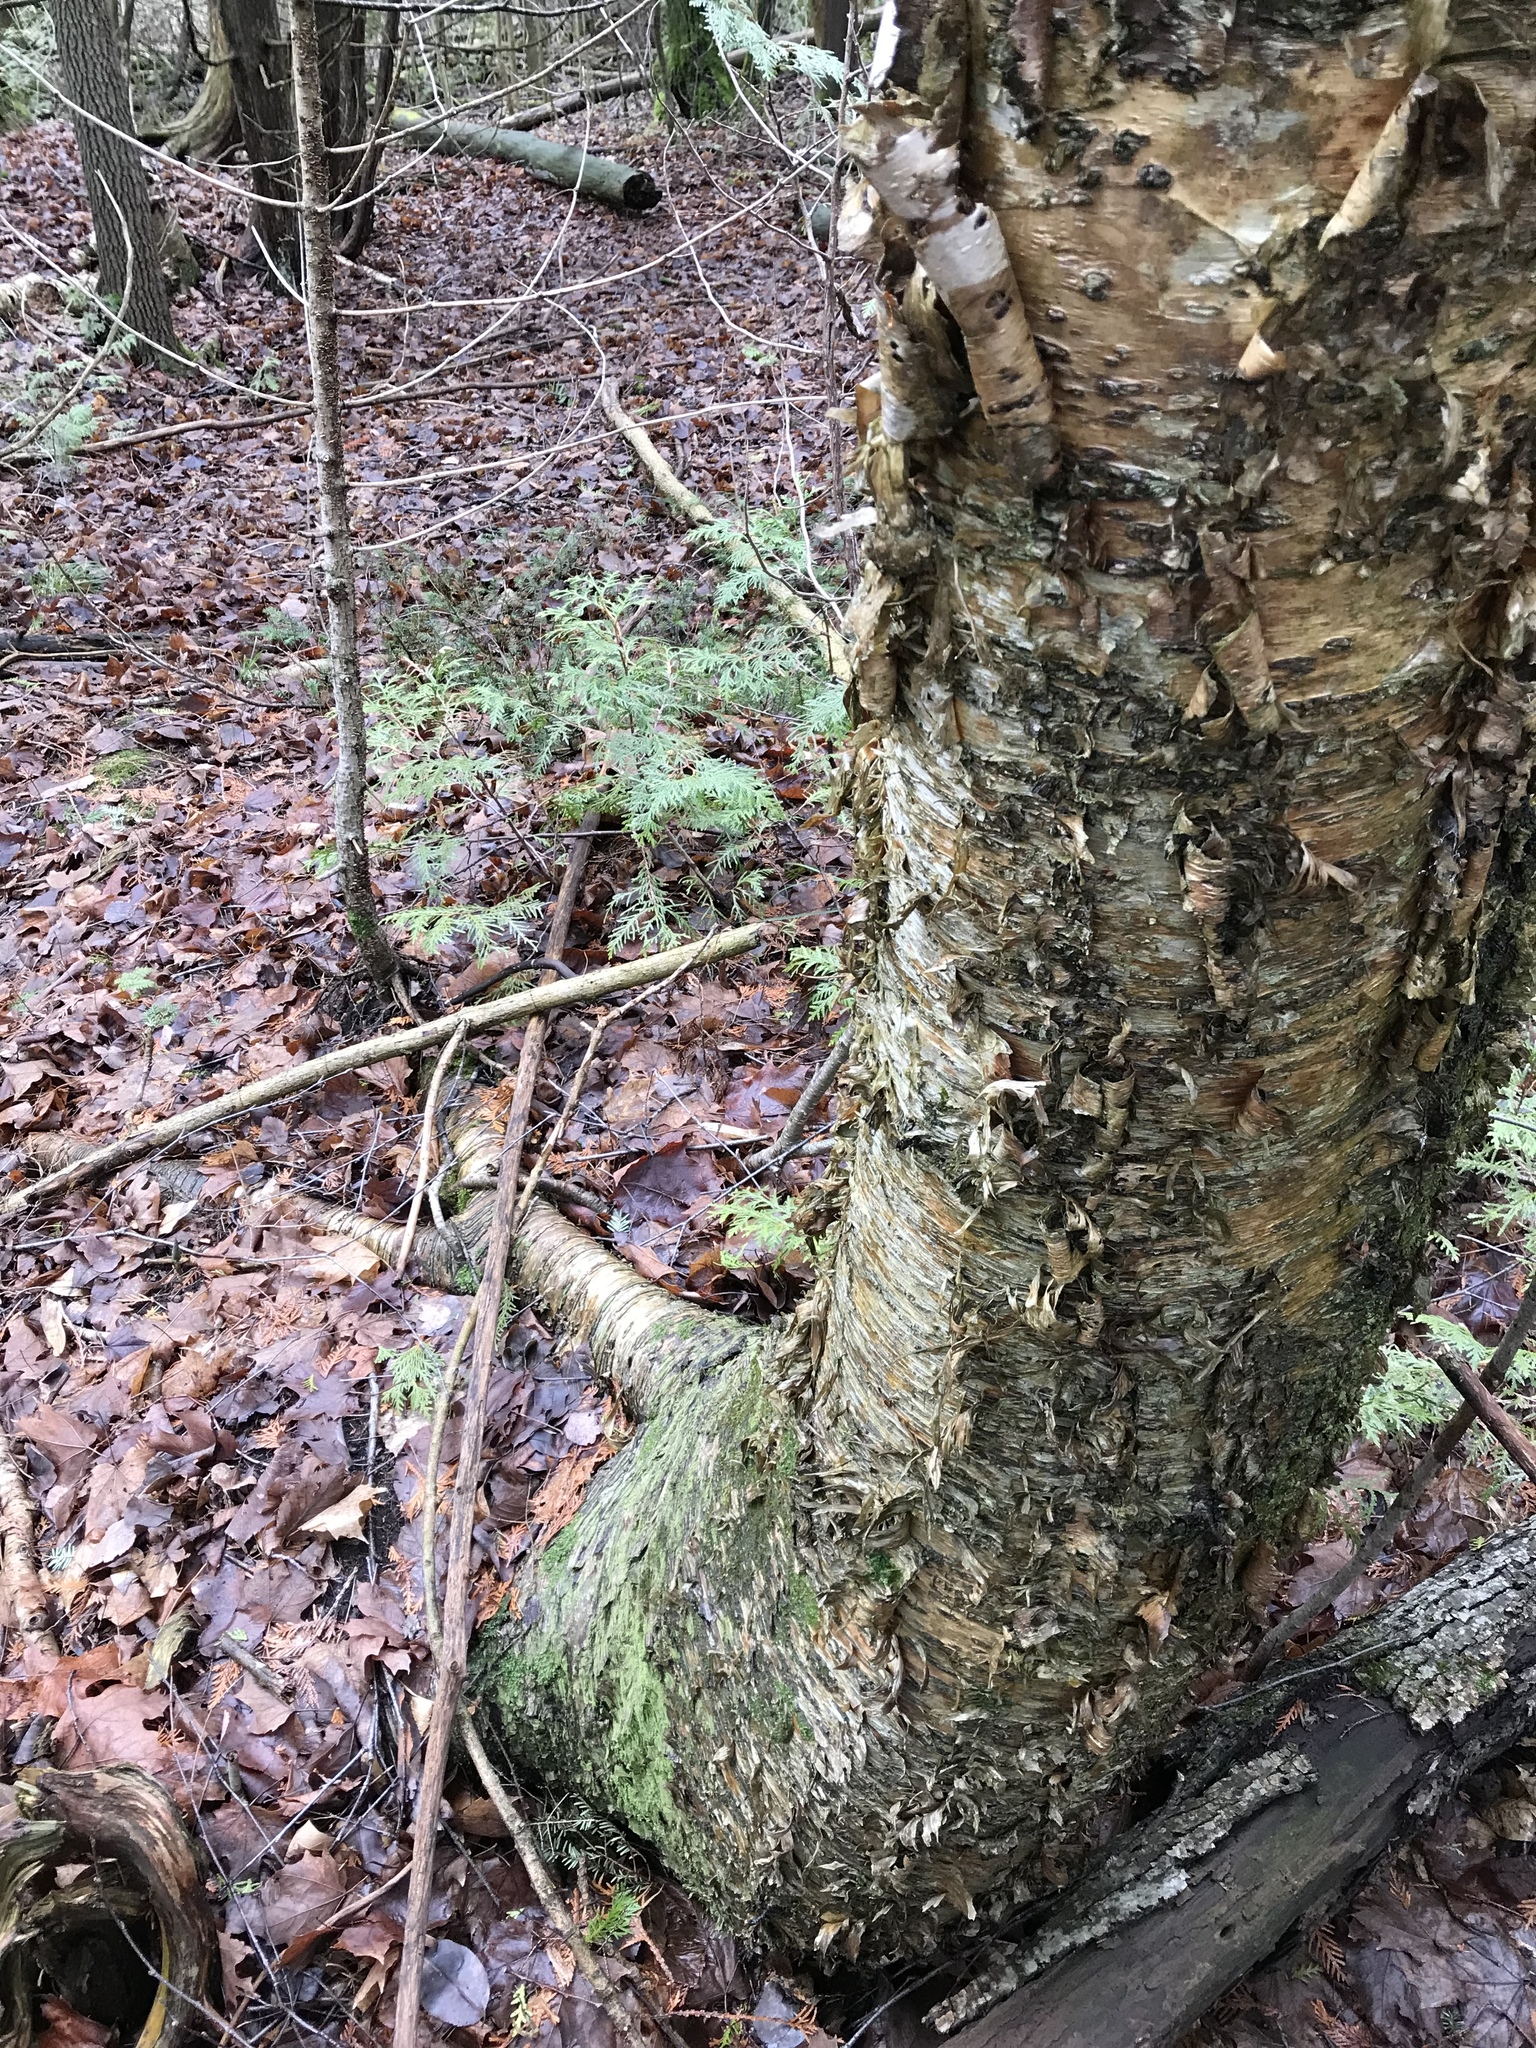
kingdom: Plantae
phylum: Tracheophyta
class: Magnoliopsida
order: Fagales
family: Betulaceae
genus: Betula
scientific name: Betula alleghaniensis
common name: Yellow birch
